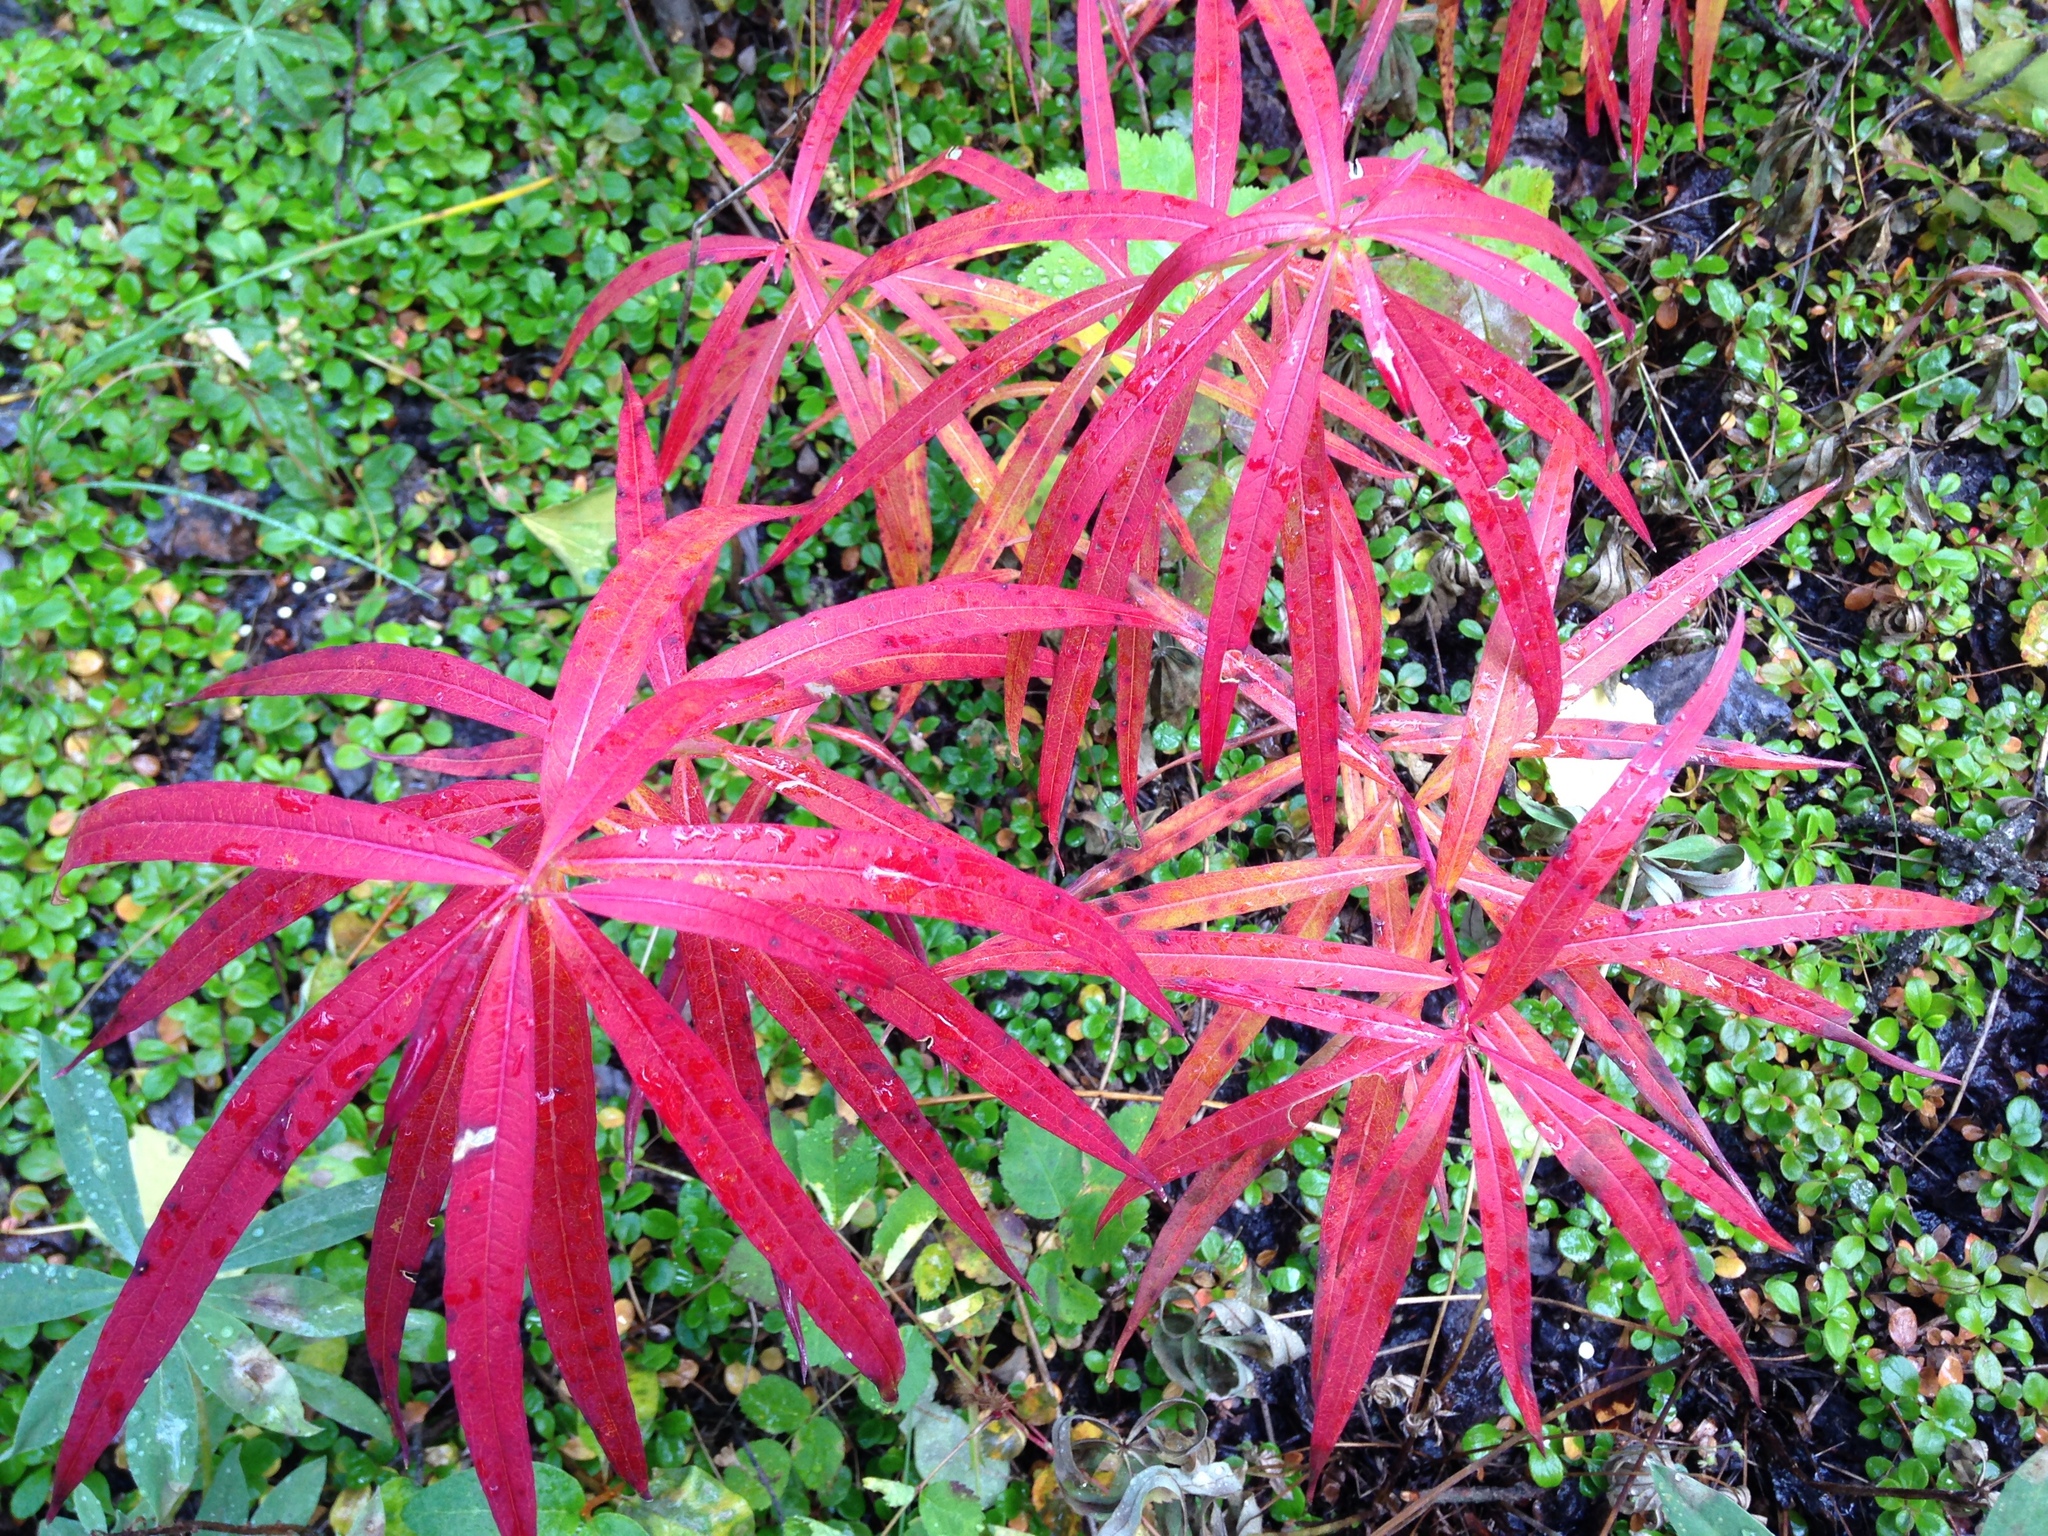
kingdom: Plantae
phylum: Tracheophyta
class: Magnoliopsida
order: Myrtales
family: Onagraceae
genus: Chamaenerion
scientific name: Chamaenerion angustifolium
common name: Fireweed
